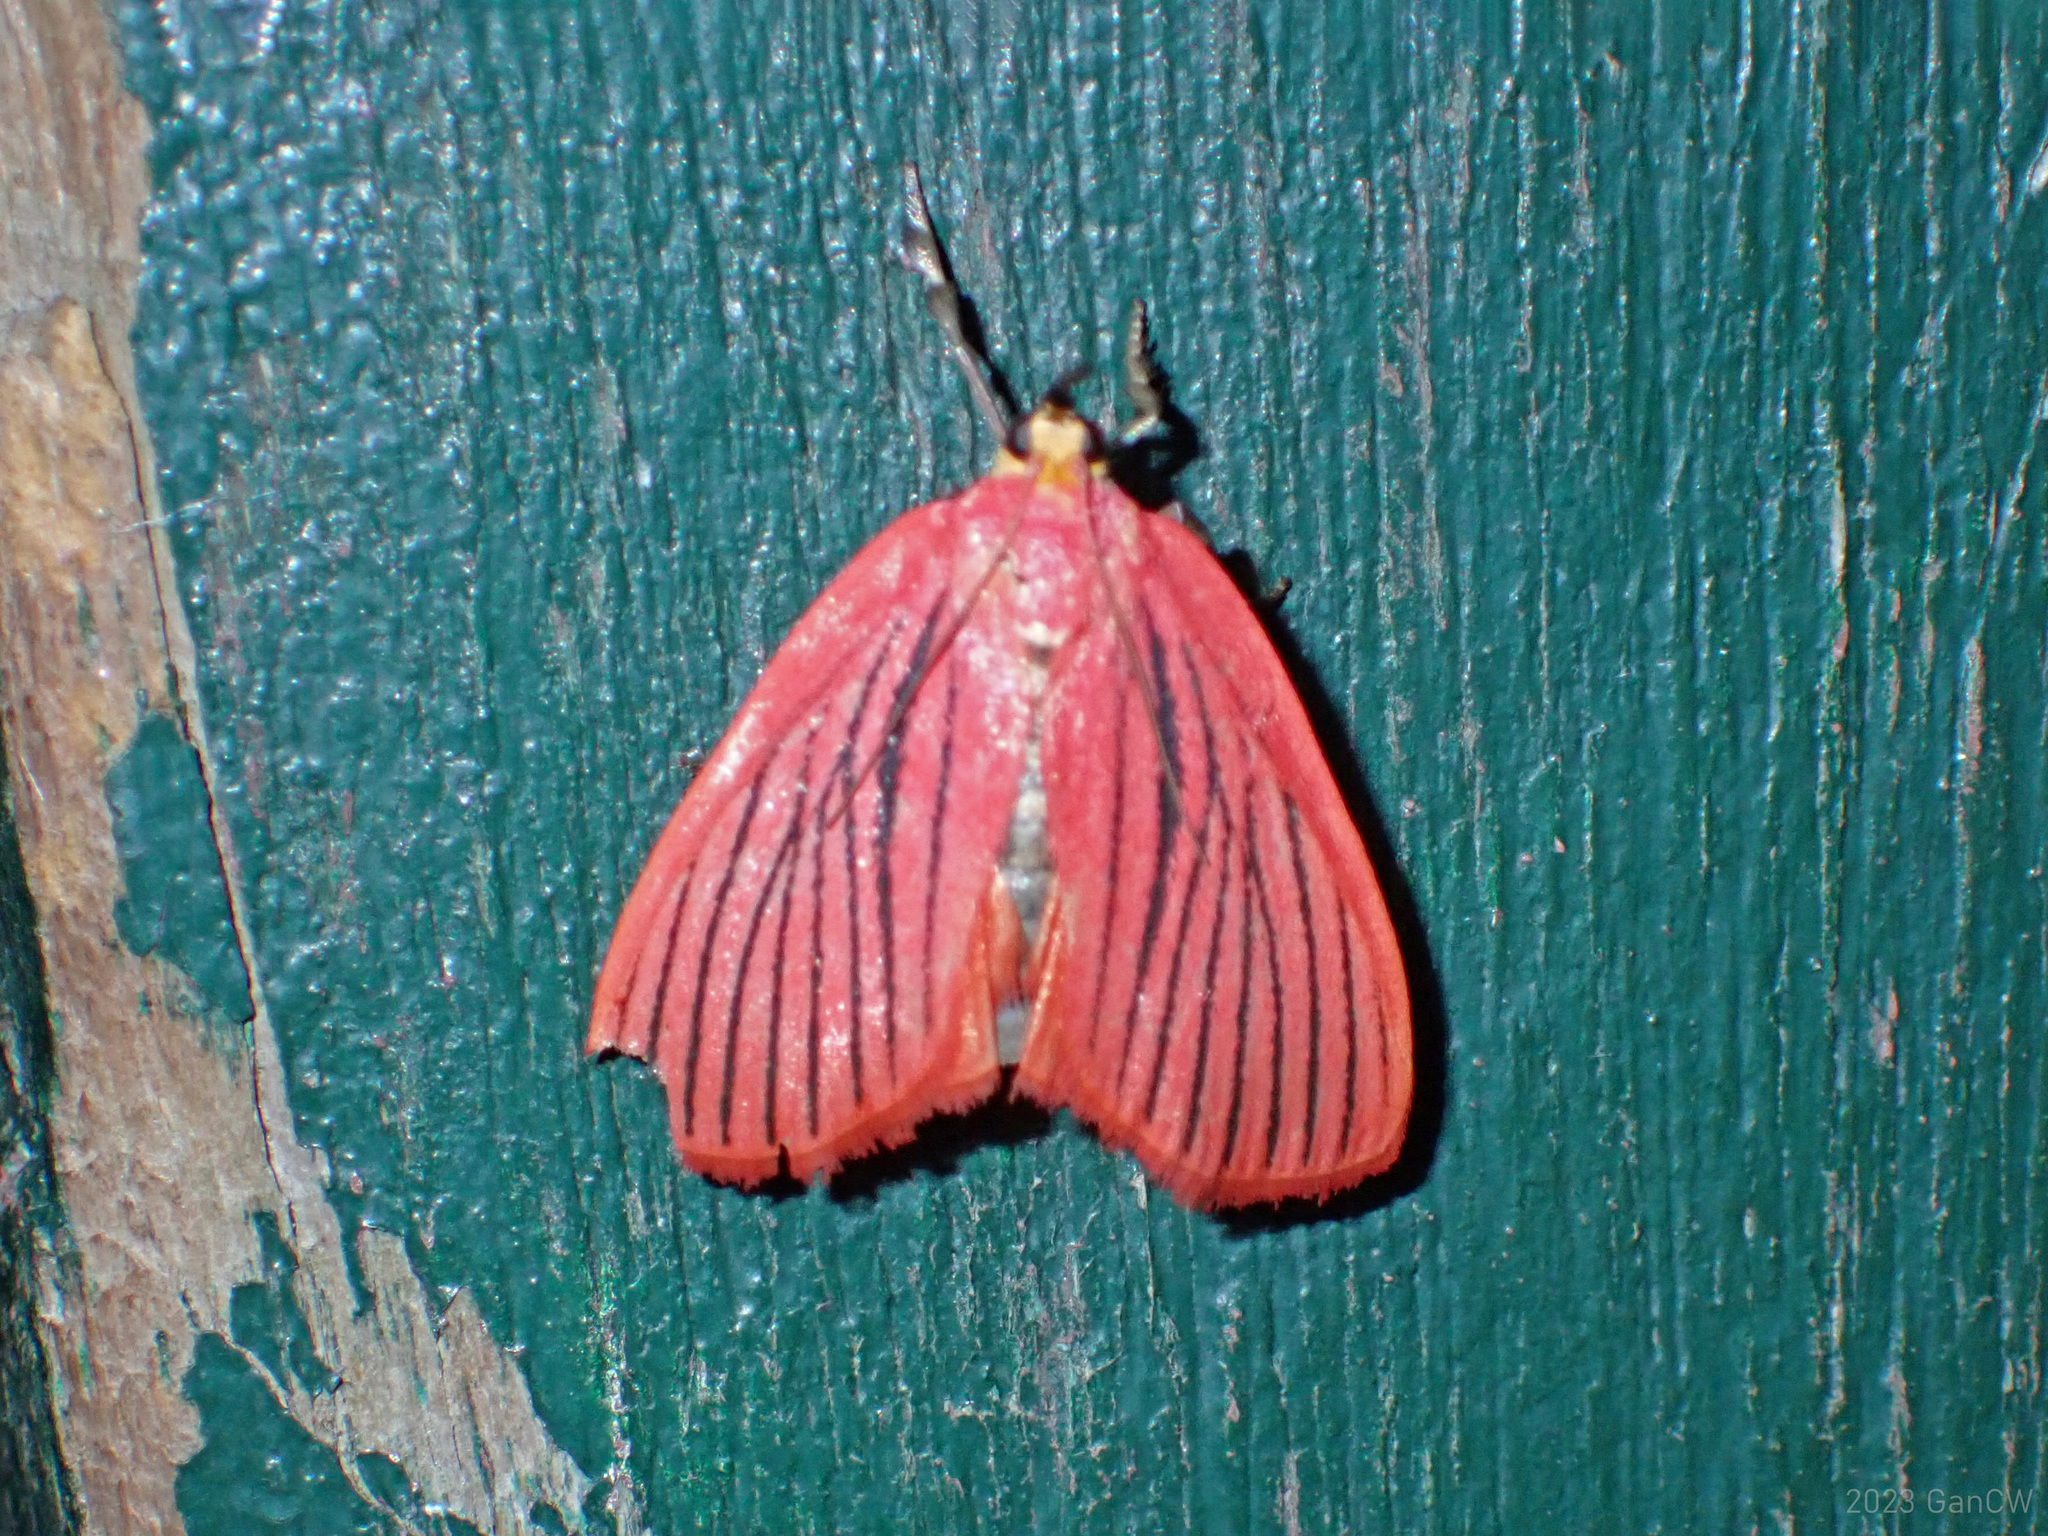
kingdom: Animalia
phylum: Arthropoda
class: Insecta
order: Lepidoptera
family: Pyralidae
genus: Arctioblepsis
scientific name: Arctioblepsis rubida
